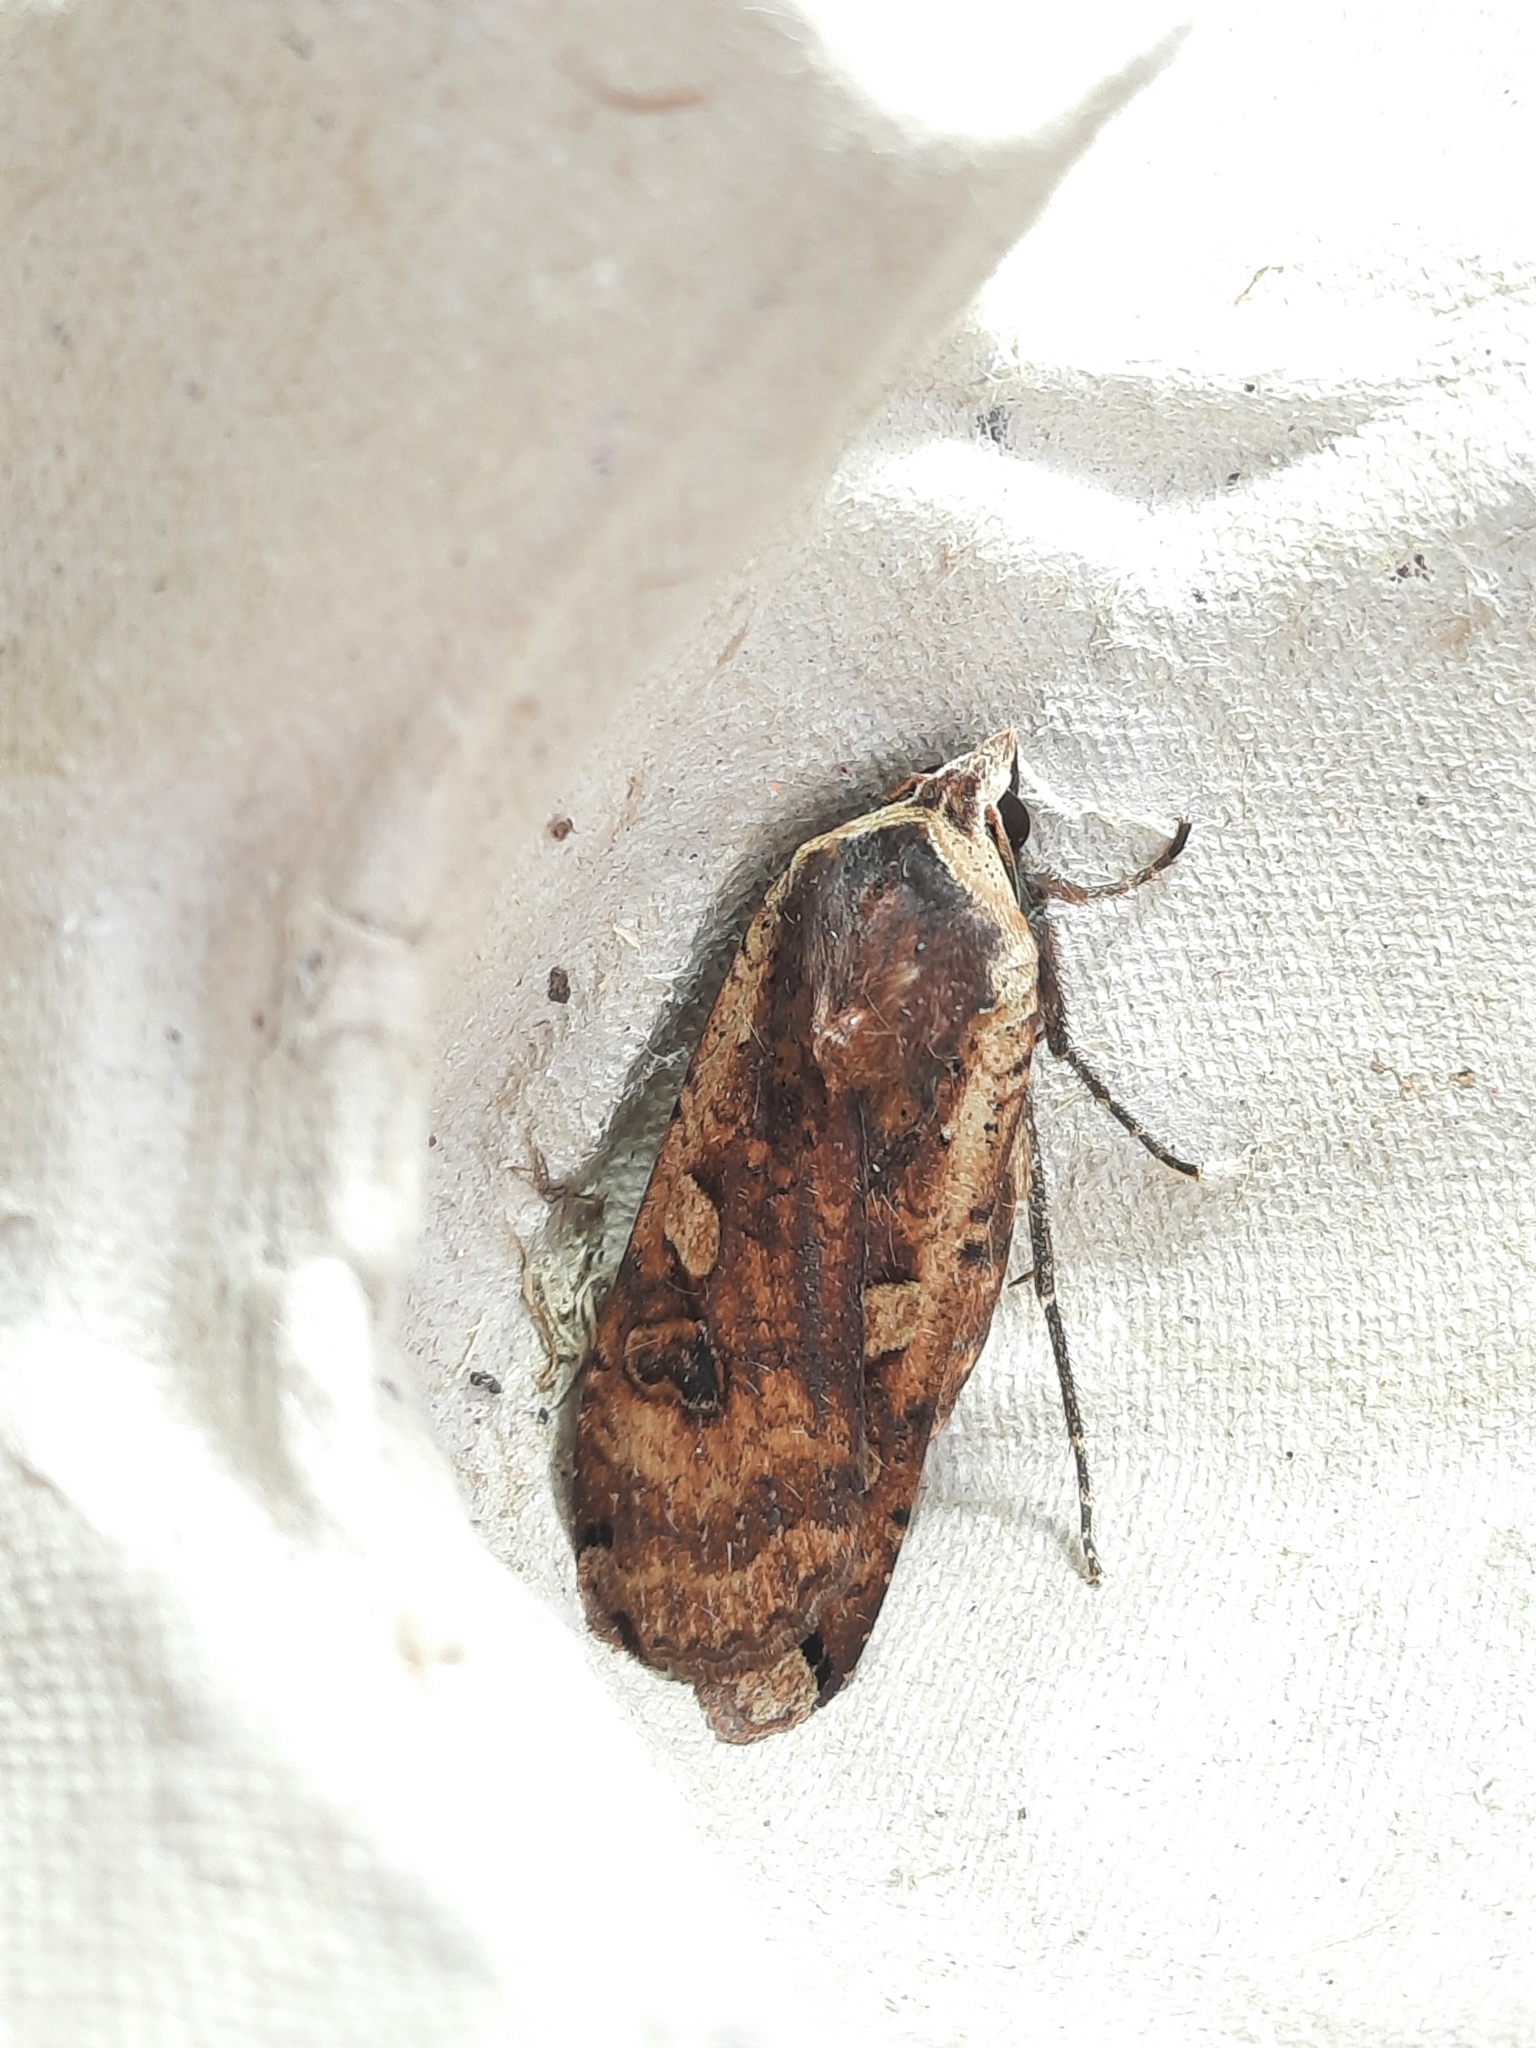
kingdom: Animalia
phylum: Arthropoda
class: Insecta
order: Lepidoptera
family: Noctuidae
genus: Noctua
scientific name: Noctua pronuba
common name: Large yellow underwing
